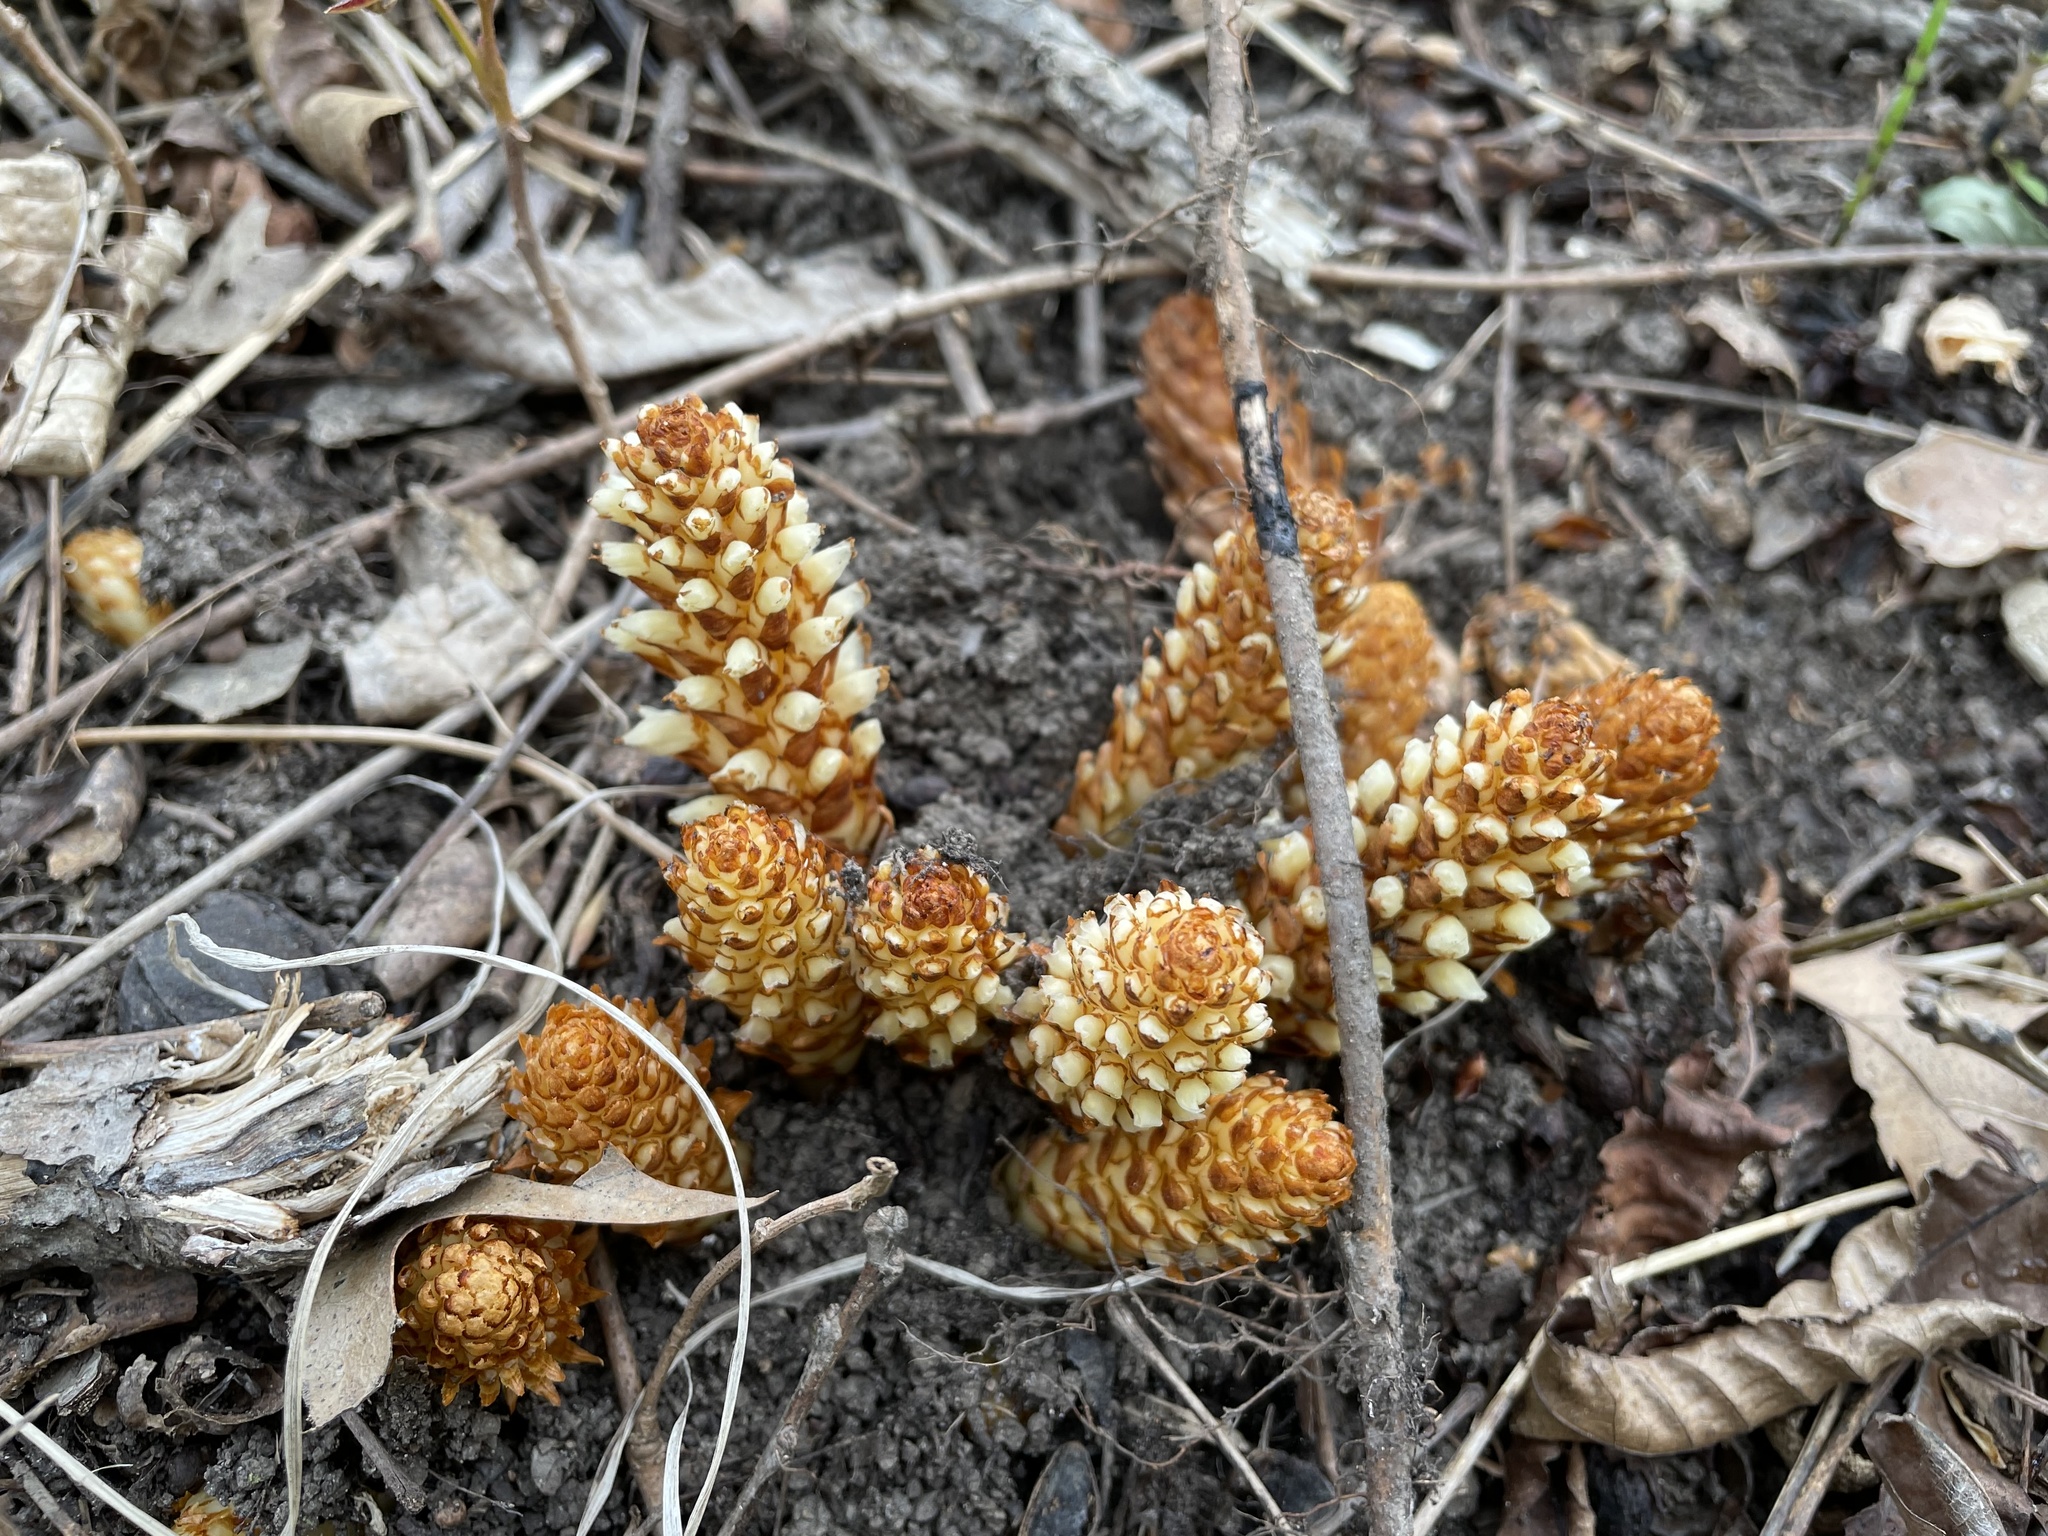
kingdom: Plantae
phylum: Tracheophyta
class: Magnoliopsida
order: Lamiales
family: Orobanchaceae
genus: Conopholis
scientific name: Conopholis americana
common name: American cancer-root
